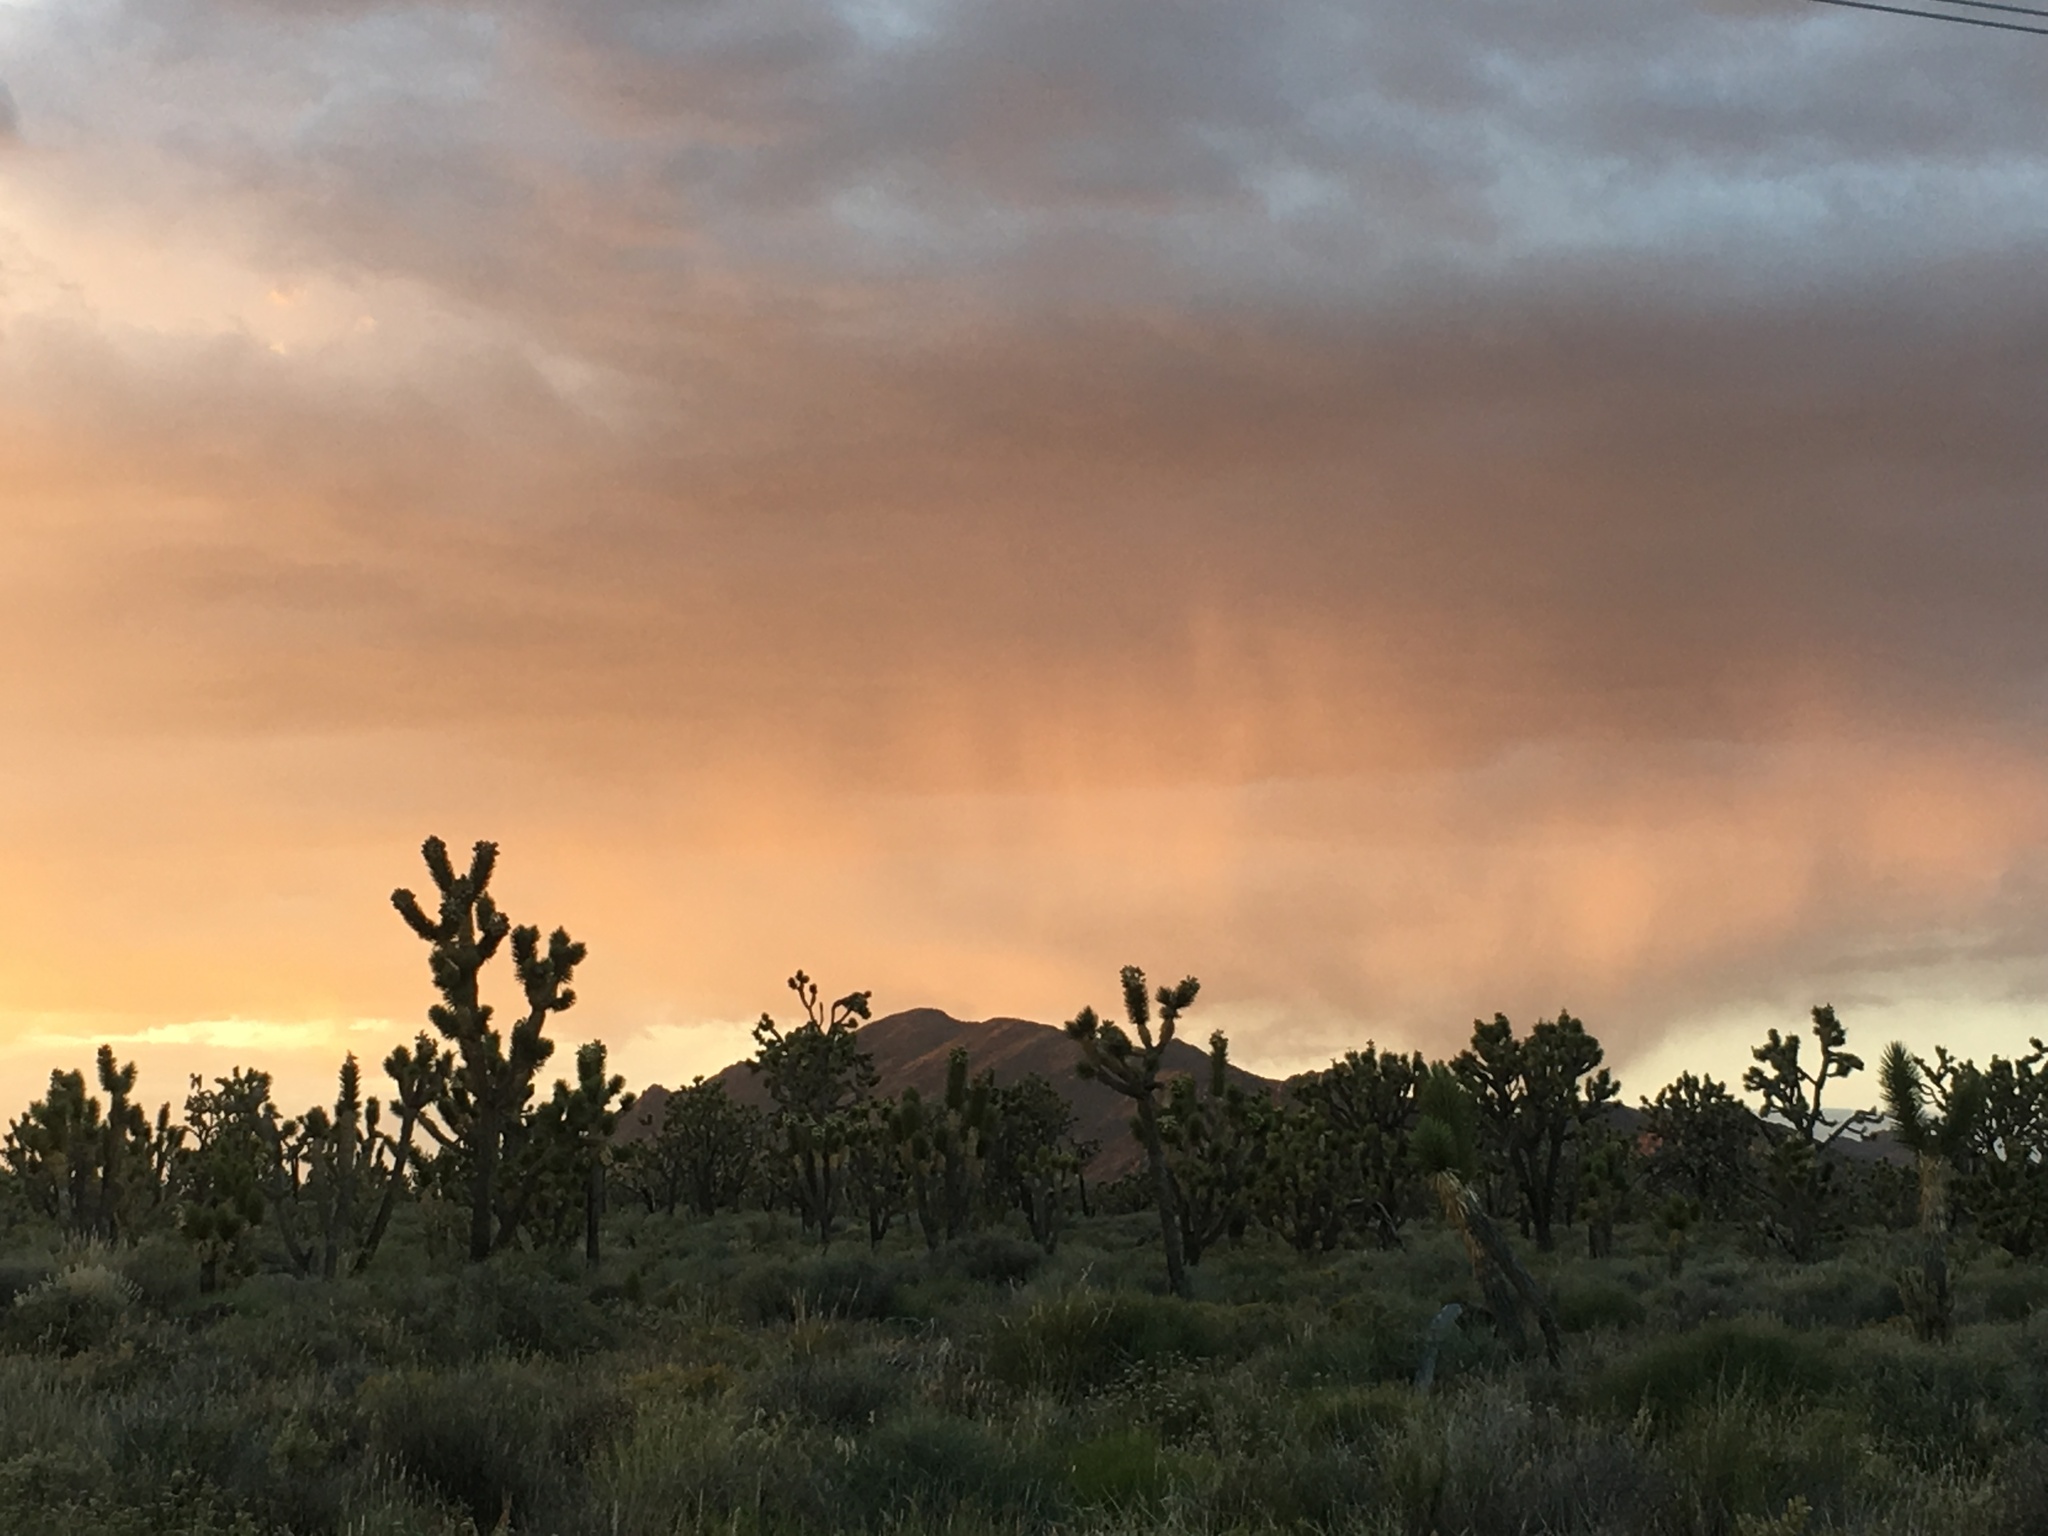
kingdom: Plantae
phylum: Tracheophyta
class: Liliopsida
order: Asparagales
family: Asparagaceae
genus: Yucca
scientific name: Yucca brevifolia
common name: Joshua tree
